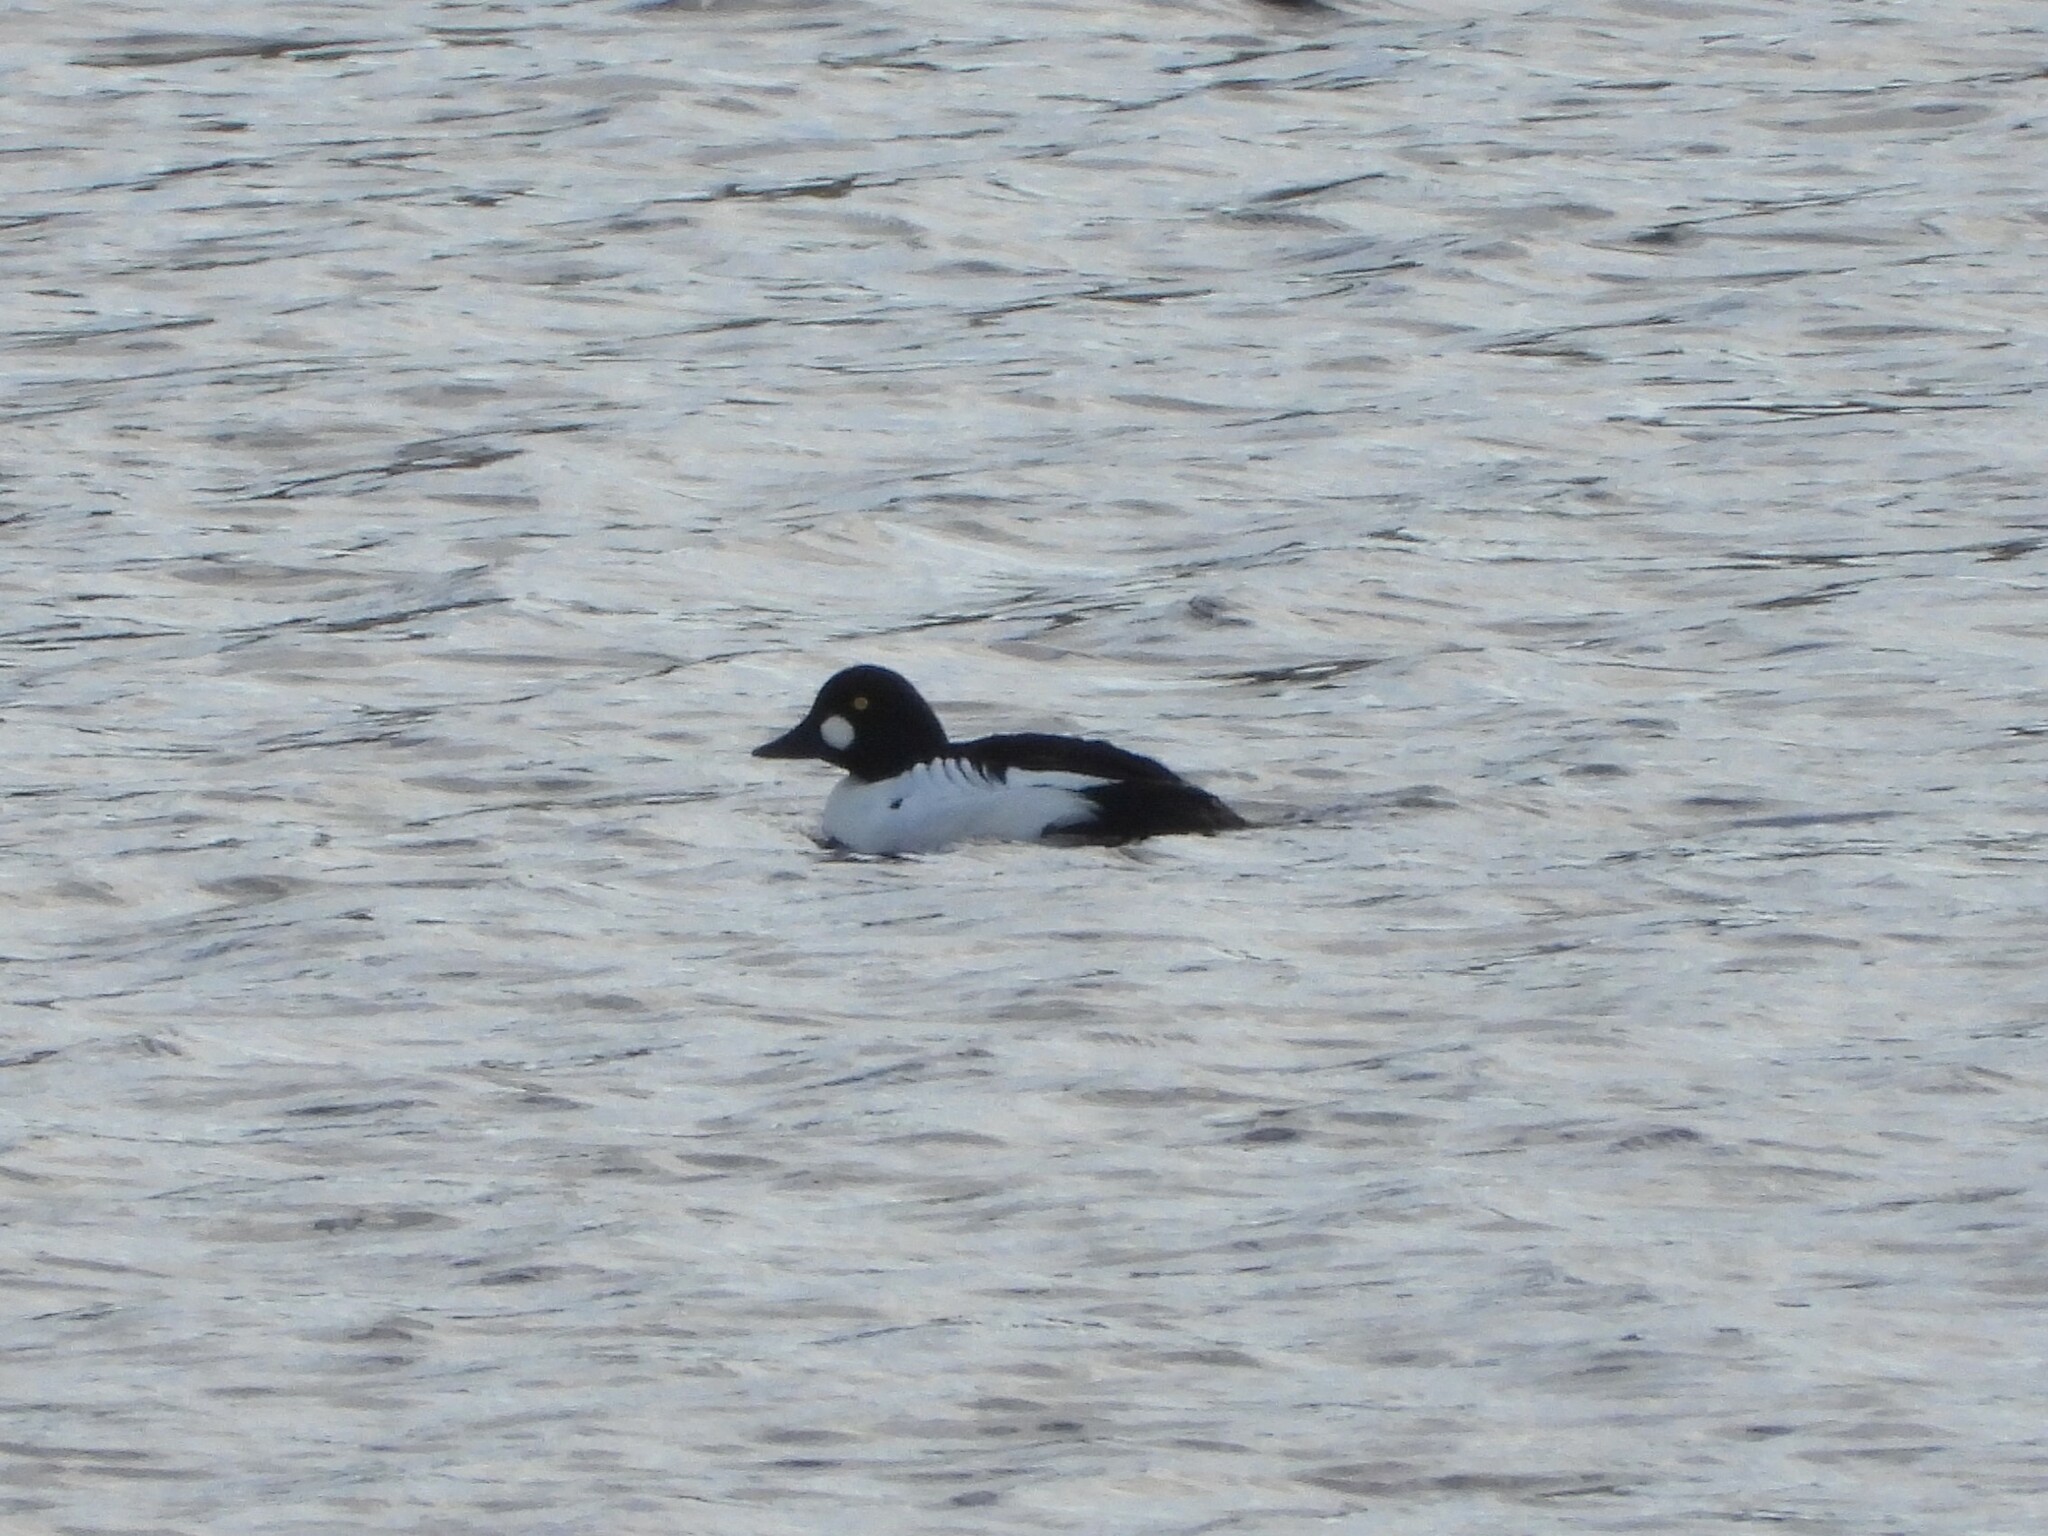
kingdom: Animalia
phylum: Chordata
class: Aves
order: Anseriformes
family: Anatidae
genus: Bucephala
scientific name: Bucephala clangula
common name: Common goldeneye
